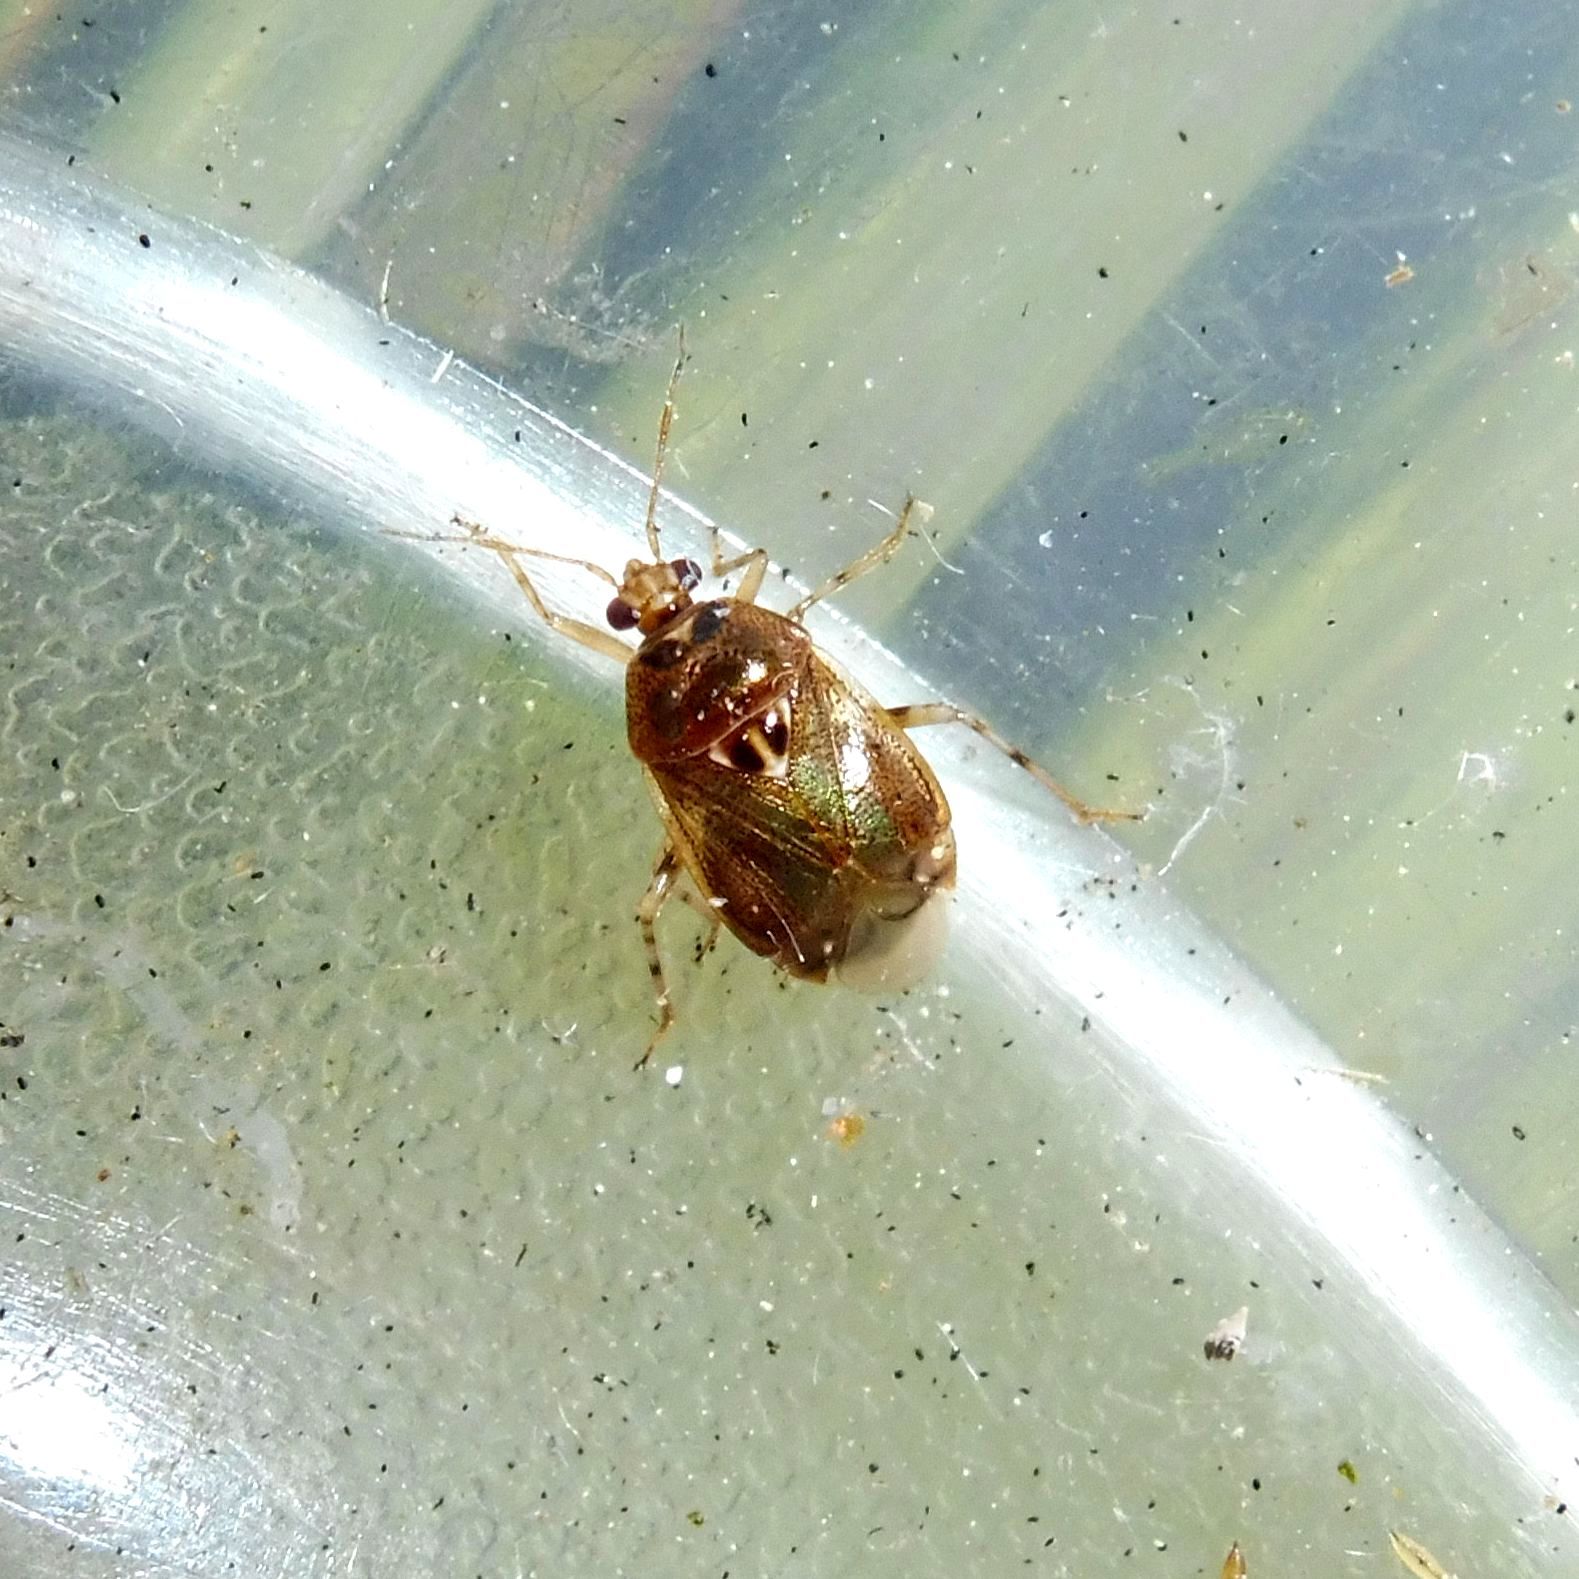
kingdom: Animalia
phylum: Arthropoda
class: Insecta
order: Hemiptera
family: Miridae
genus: Deraeocoris
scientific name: Deraeocoris lutescens
